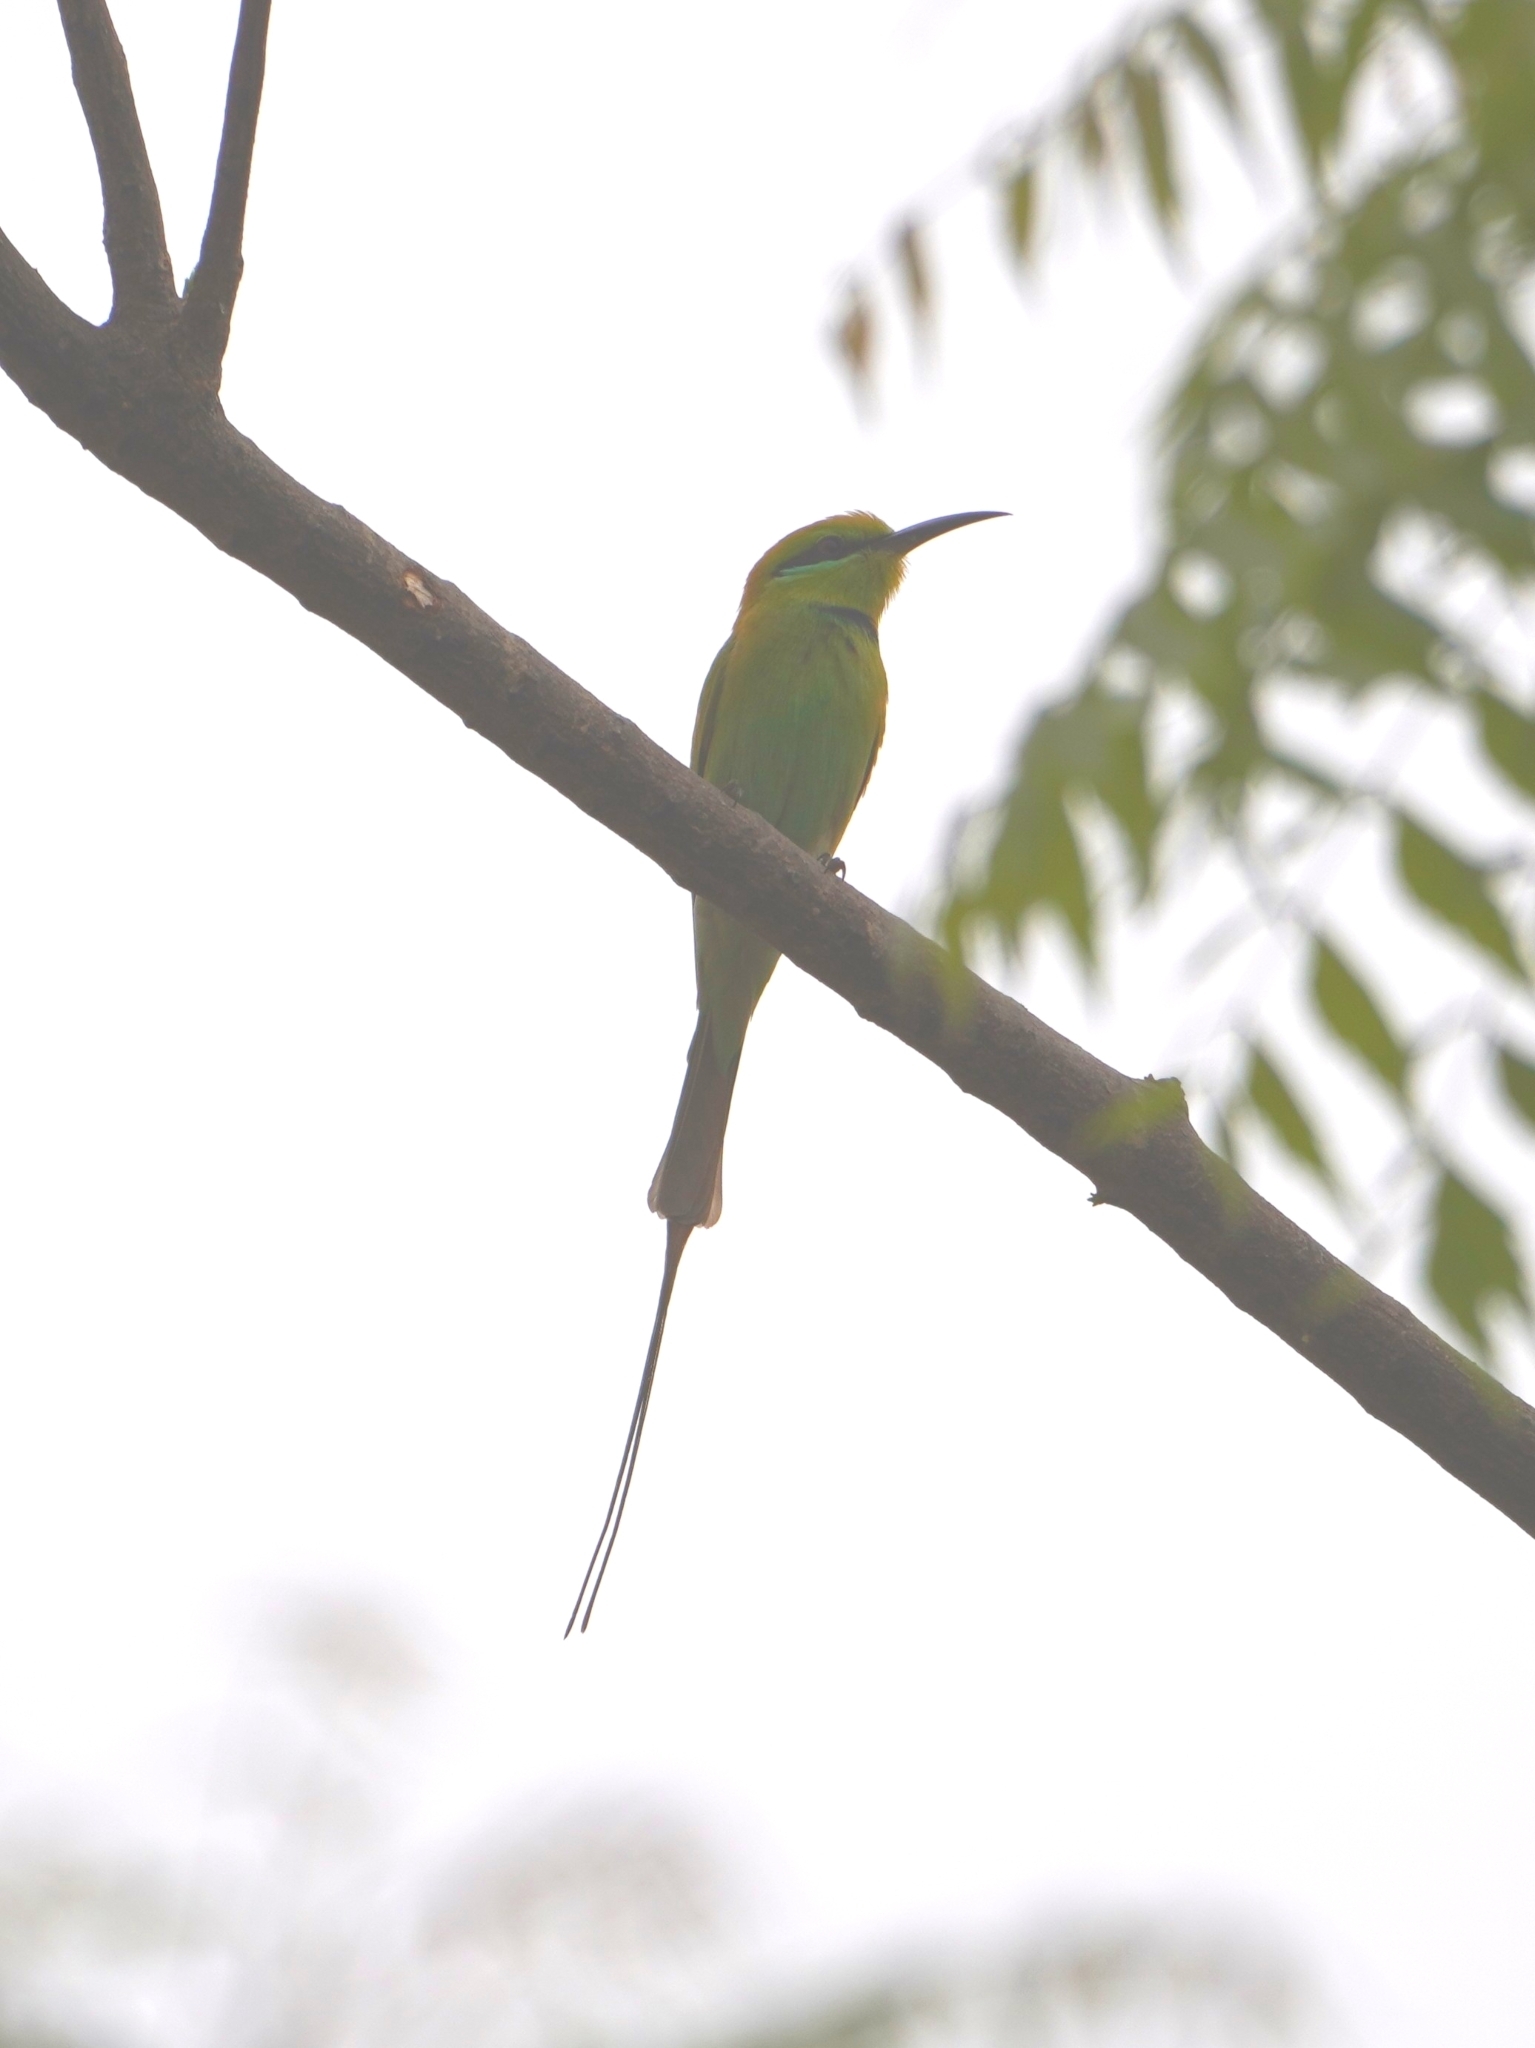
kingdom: Animalia
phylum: Chordata
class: Aves
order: Coraciiformes
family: Meropidae
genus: Merops
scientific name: Merops viridissimus
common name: African green bee-eater
